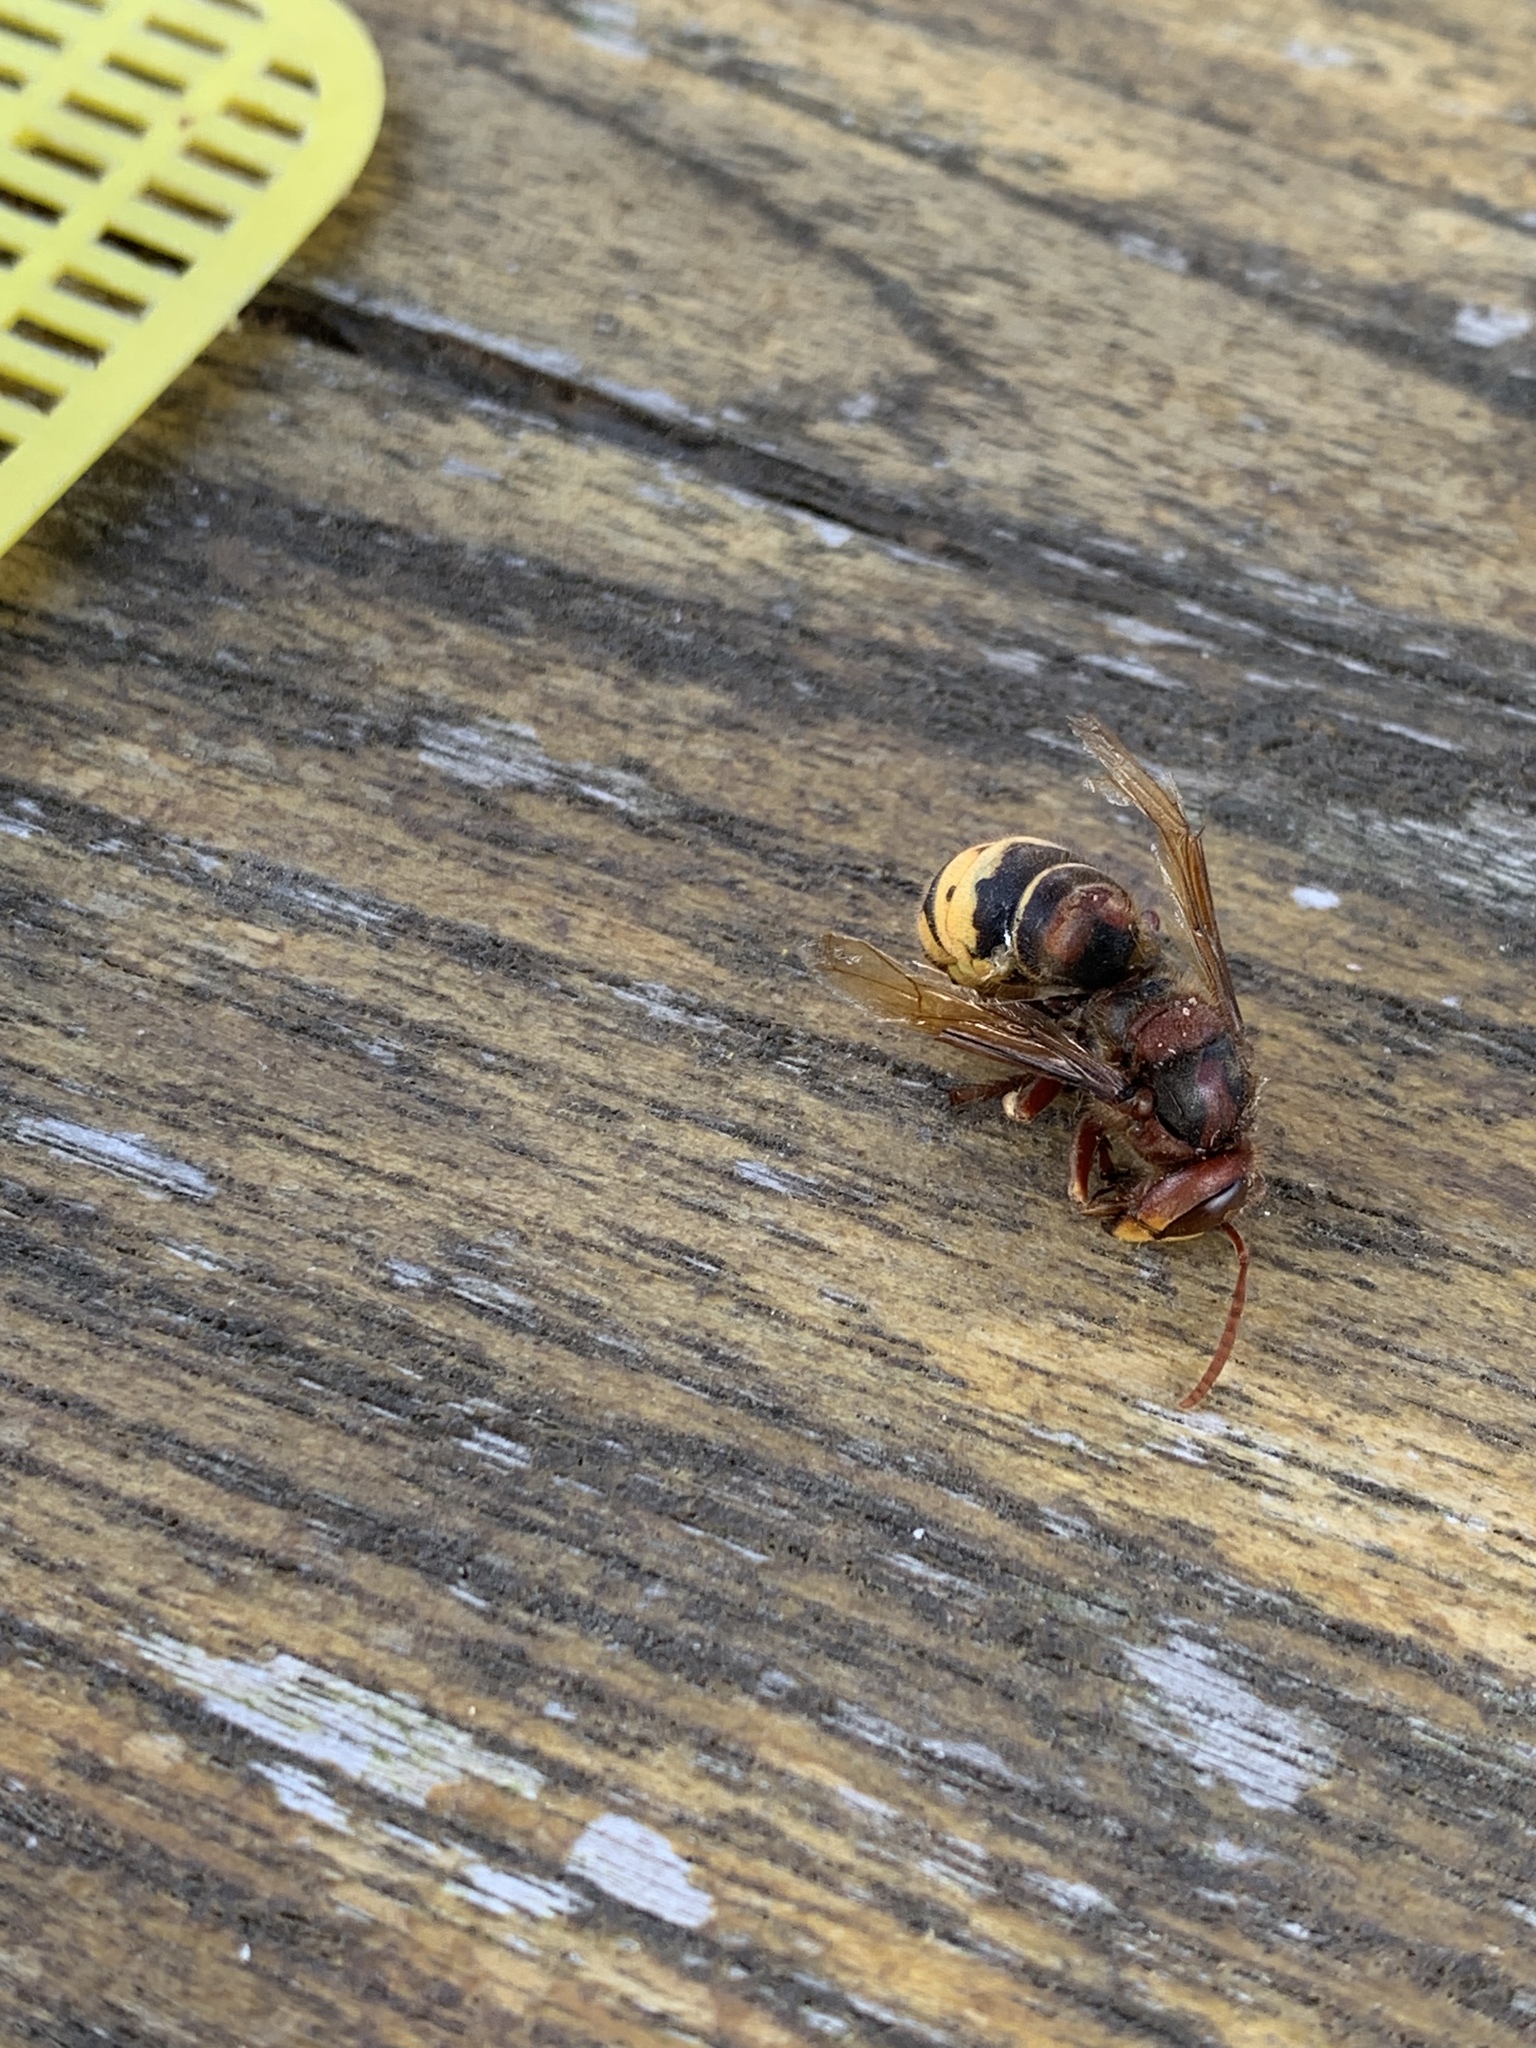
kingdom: Animalia
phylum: Arthropoda
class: Insecta
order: Hymenoptera
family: Vespidae
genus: Vespa
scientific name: Vespa crabro
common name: Hornet
